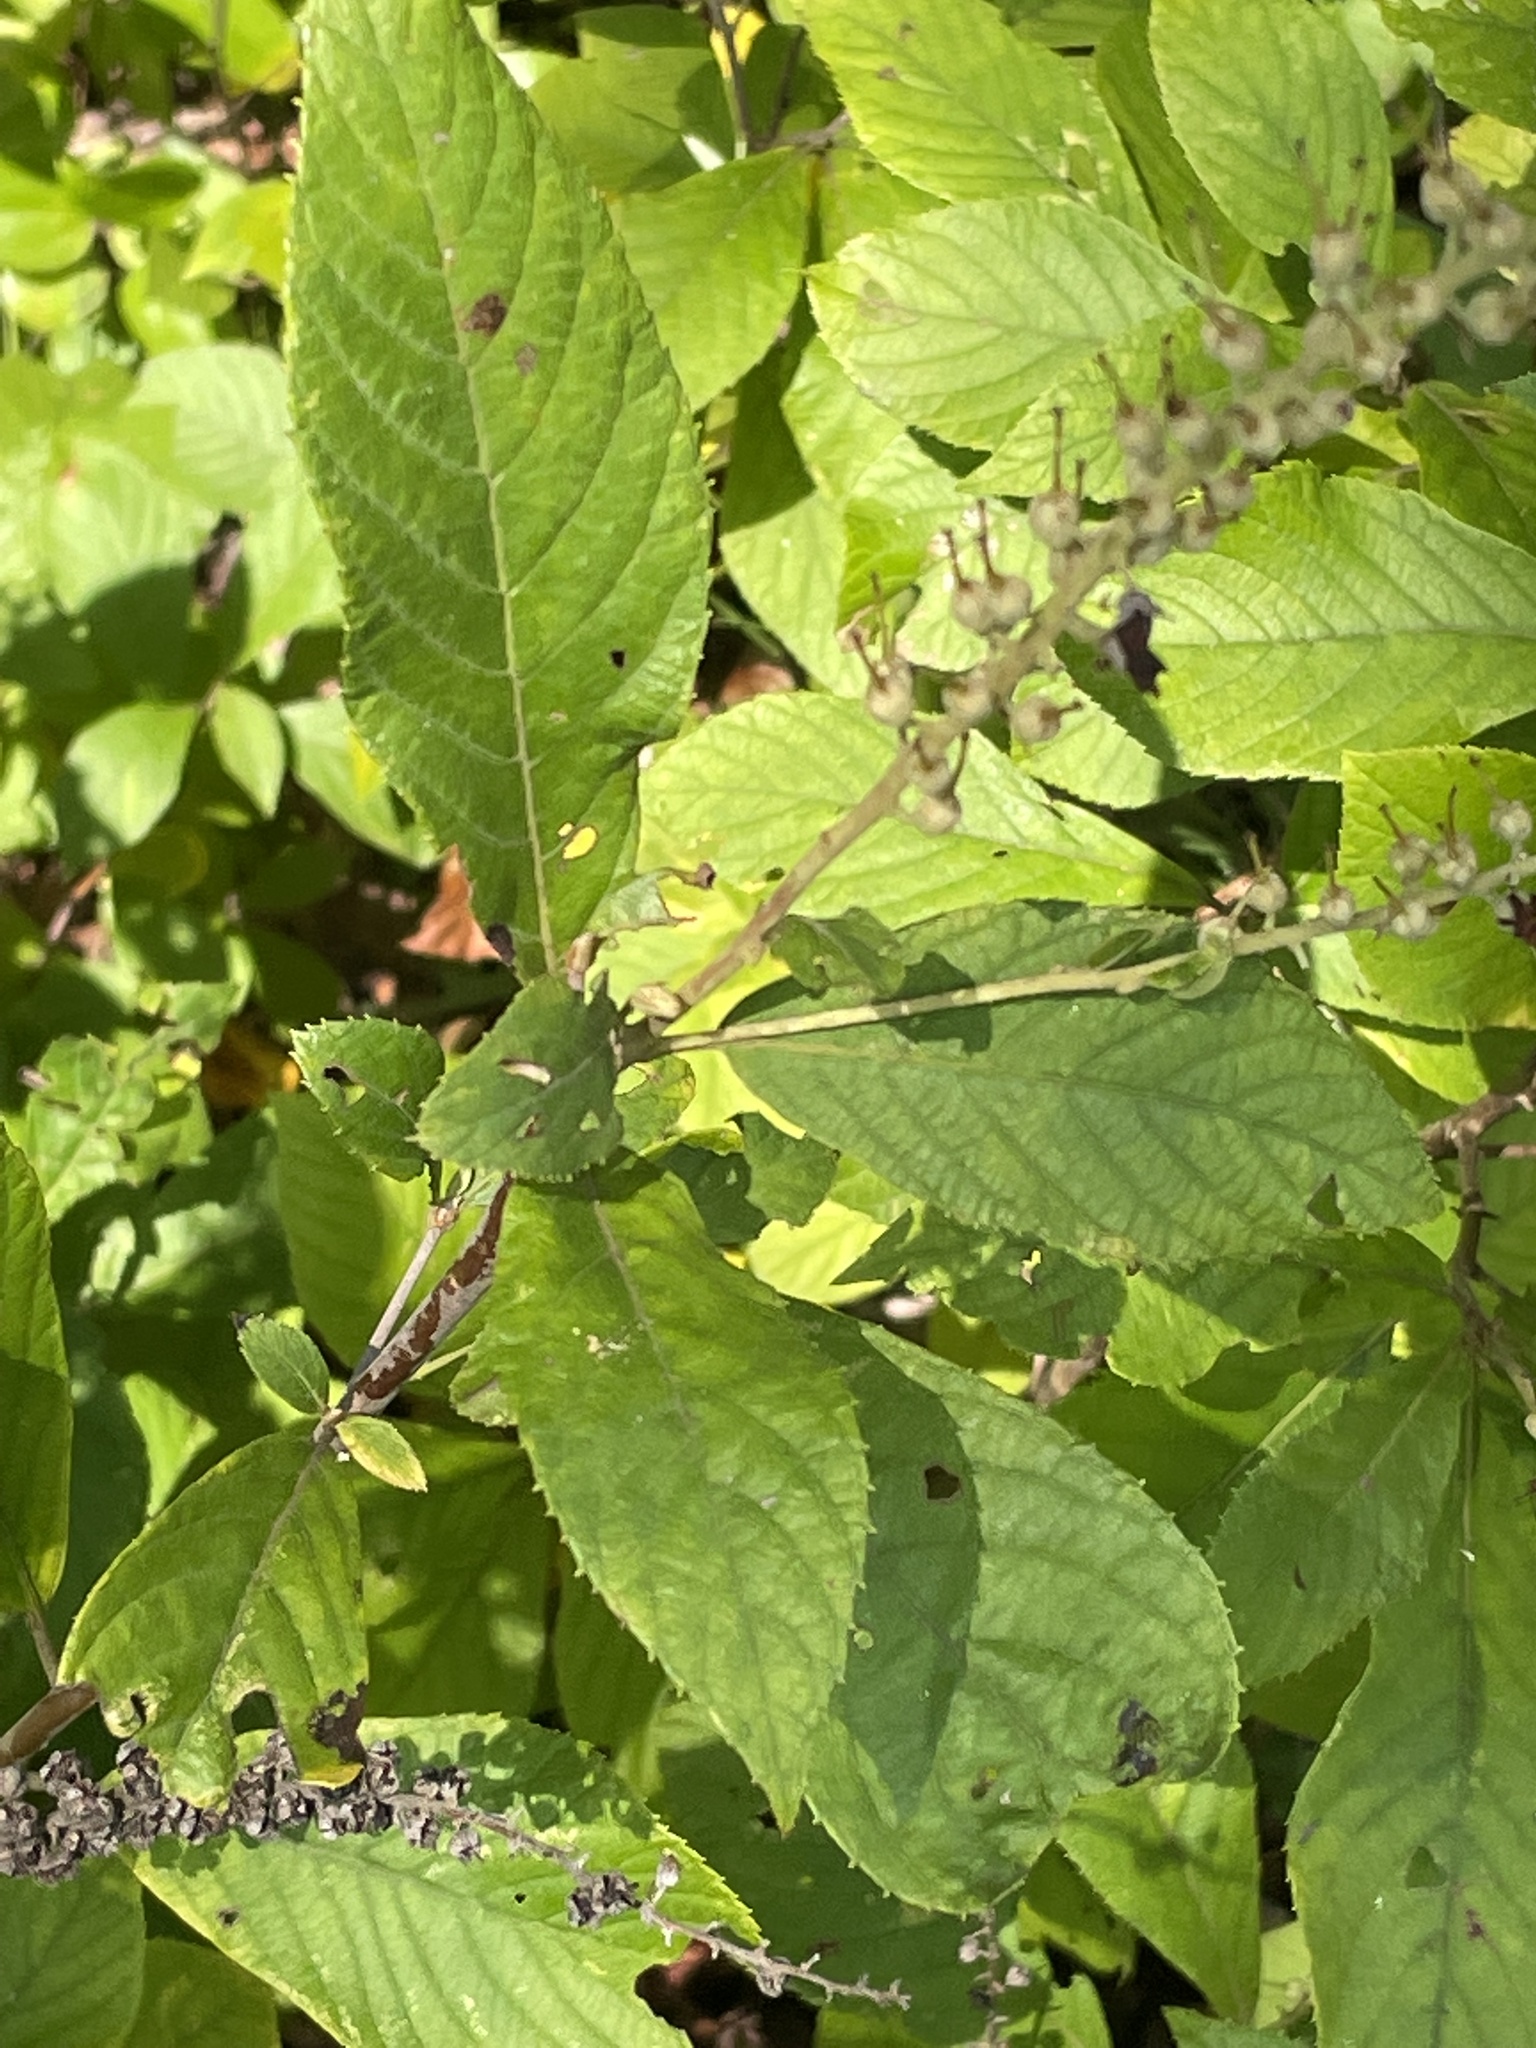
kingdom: Plantae
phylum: Tracheophyta
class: Magnoliopsida
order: Ericales
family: Clethraceae
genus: Clethra
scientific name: Clethra alnifolia
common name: Sweet pepperbush
